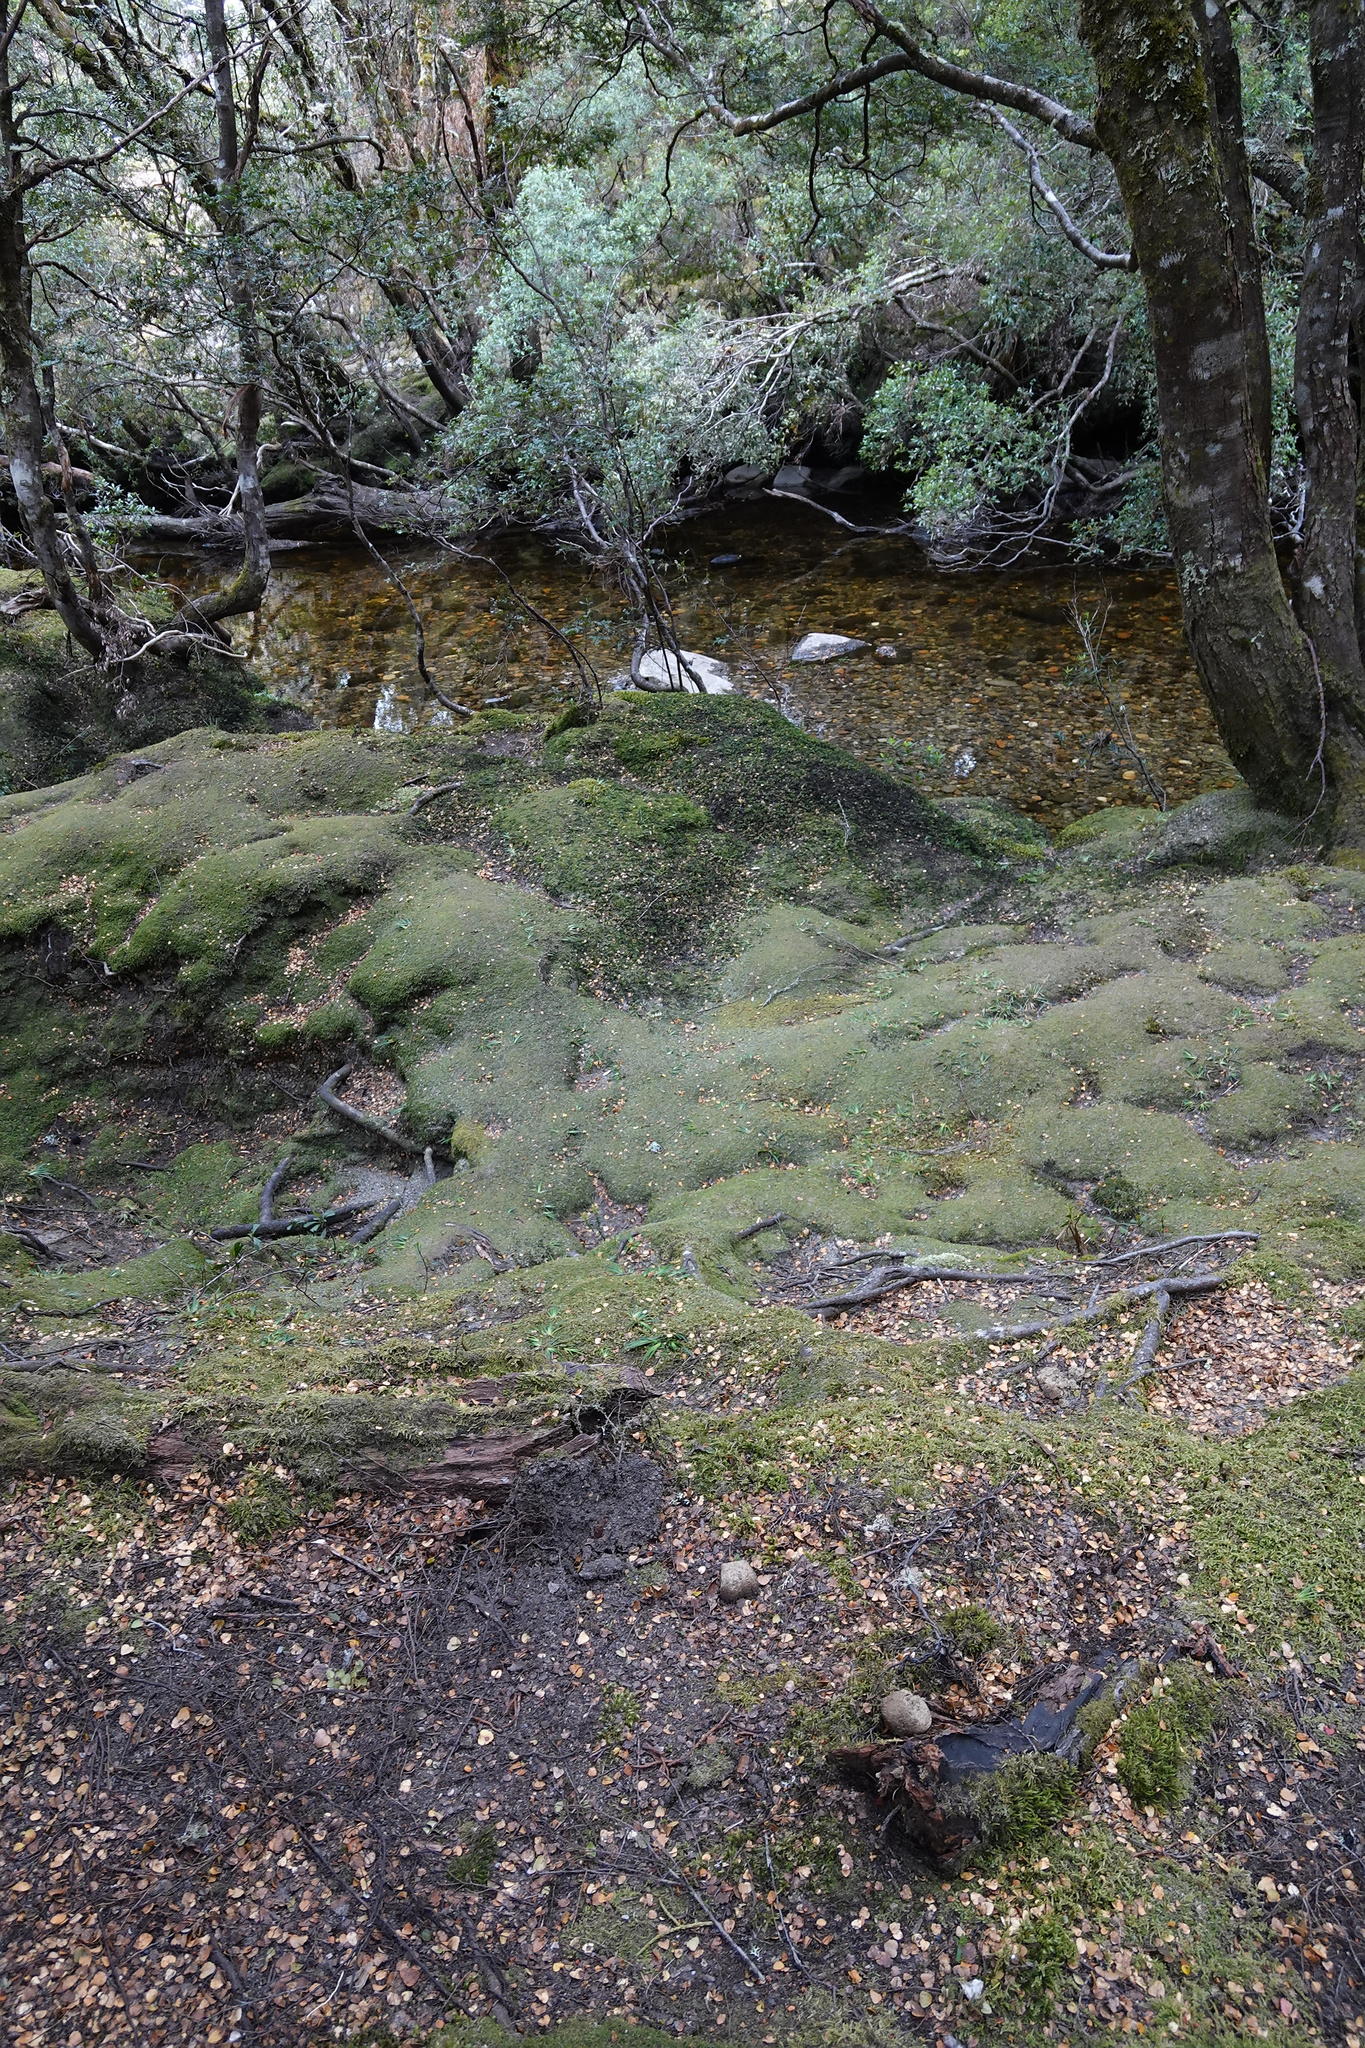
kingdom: Animalia
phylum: Chordata
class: Mammalia
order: Diprotodontia
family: Vombatidae
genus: Vombatus
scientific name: Vombatus ursinus
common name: Common wombat
